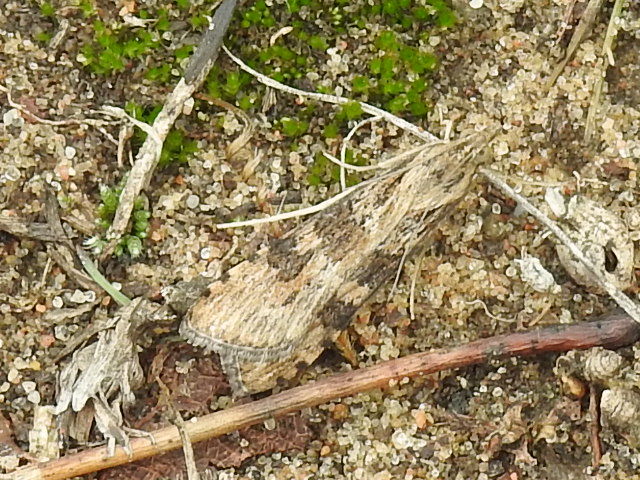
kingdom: Animalia
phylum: Arthropoda
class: Insecta
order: Lepidoptera
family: Crambidae
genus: Nomophila
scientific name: Nomophila nearctica
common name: American rush veneer
